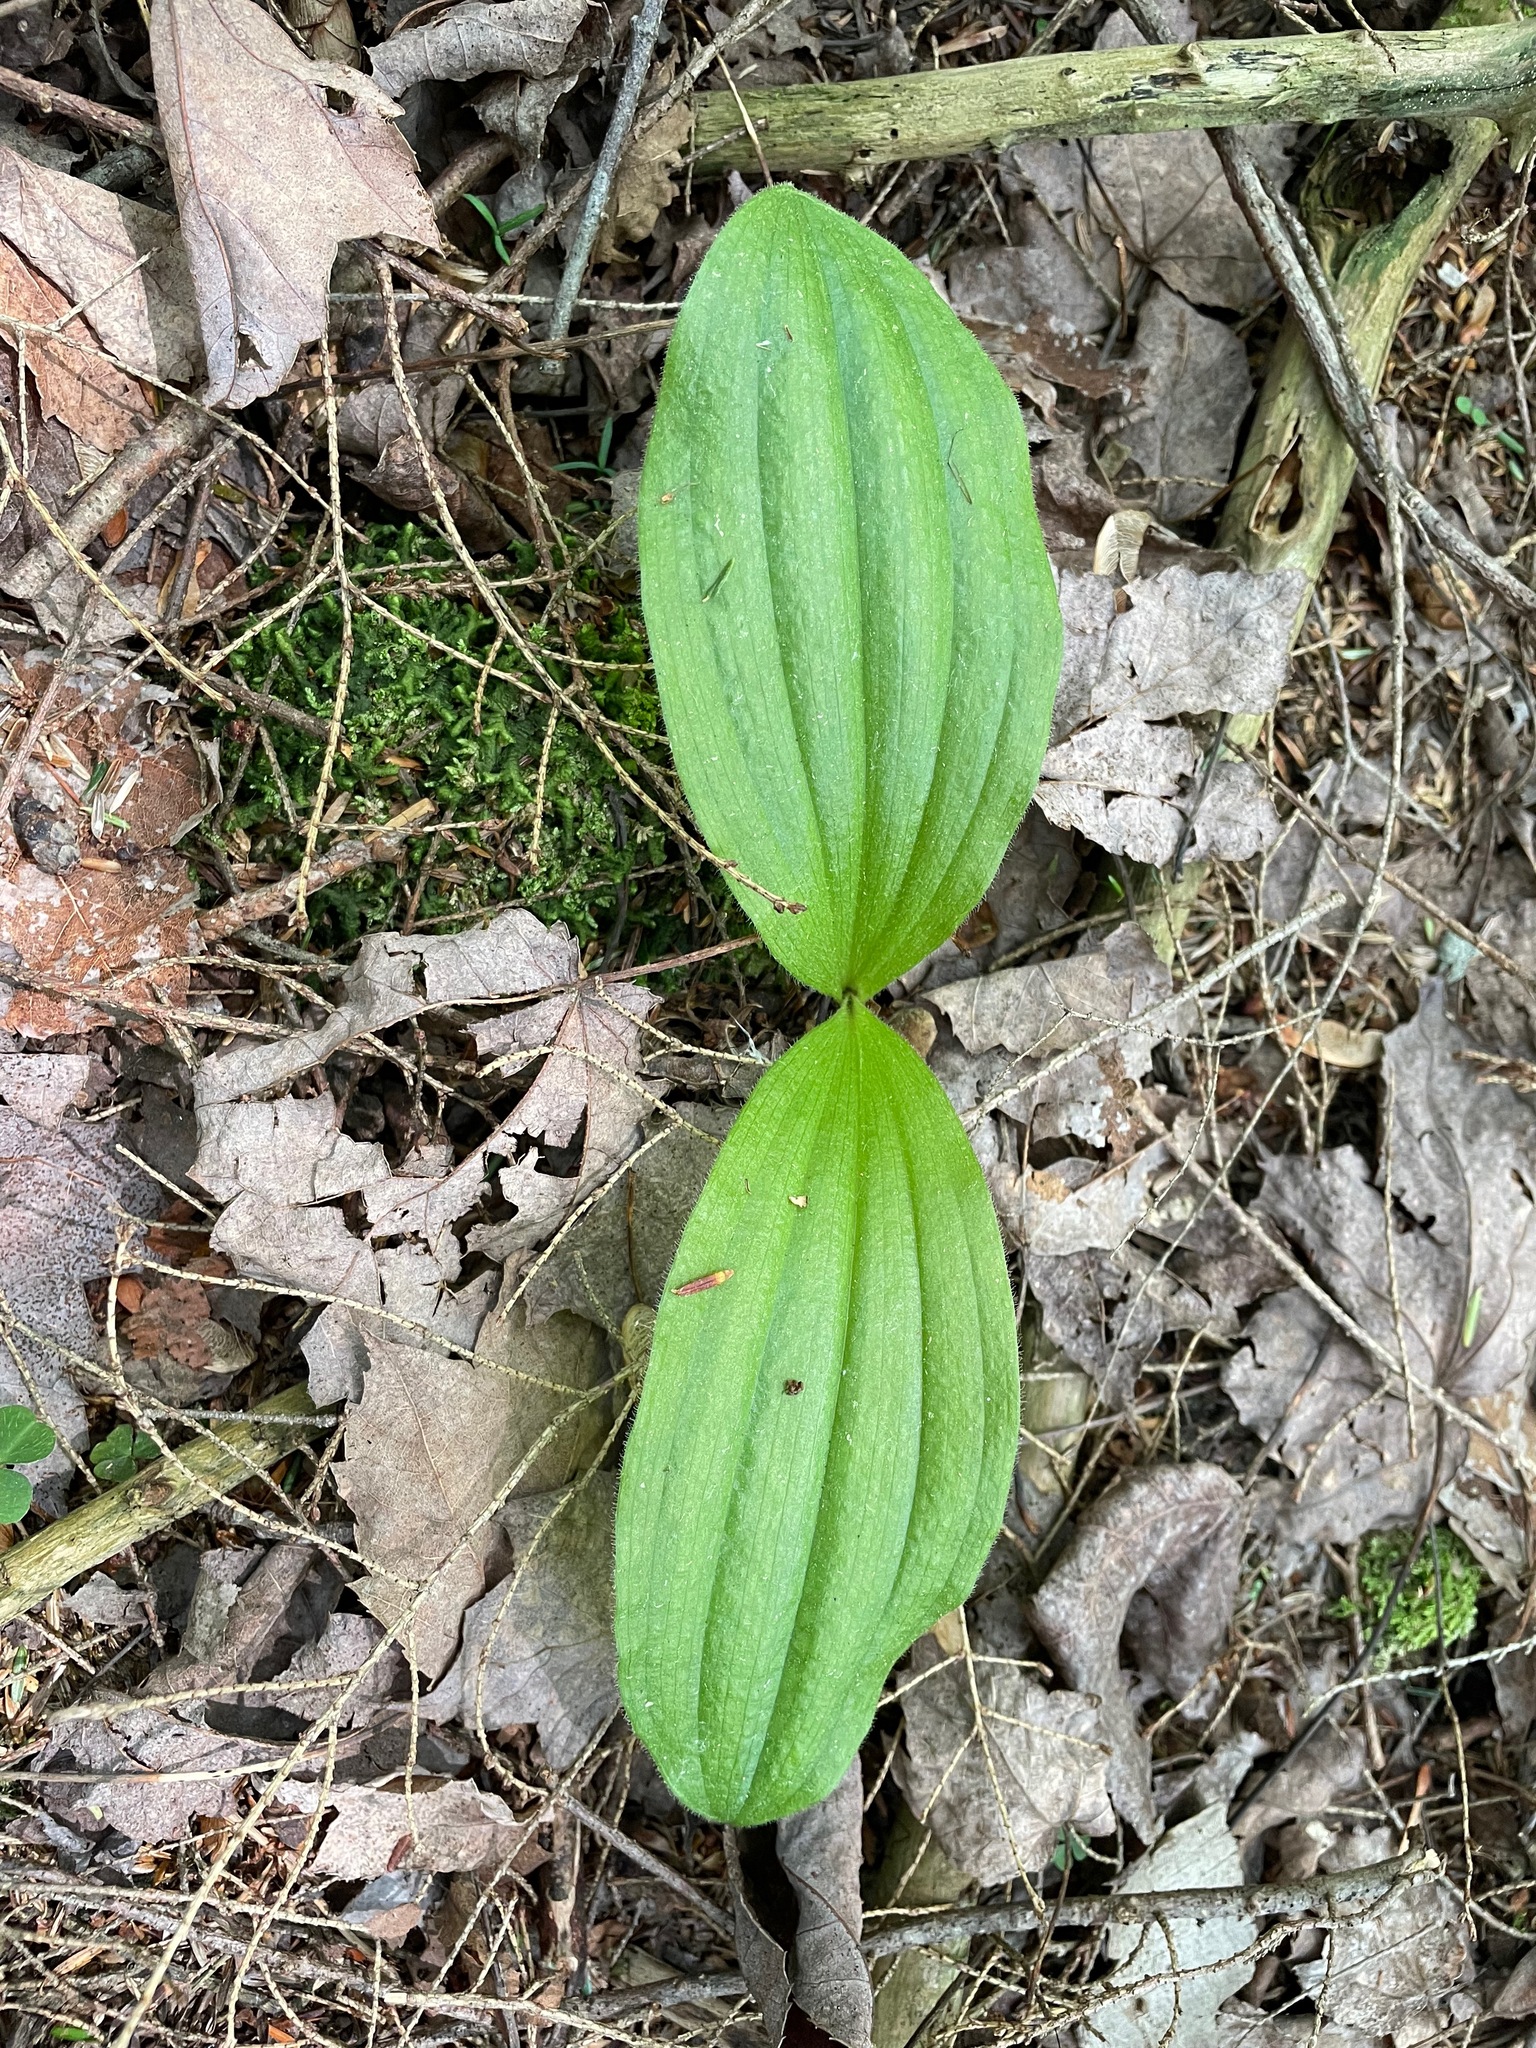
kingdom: Plantae
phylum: Tracheophyta
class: Liliopsida
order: Asparagales
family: Orchidaceae
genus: Cypripedium
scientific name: Cypripedium acaule
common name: Pink lady's-slipper
